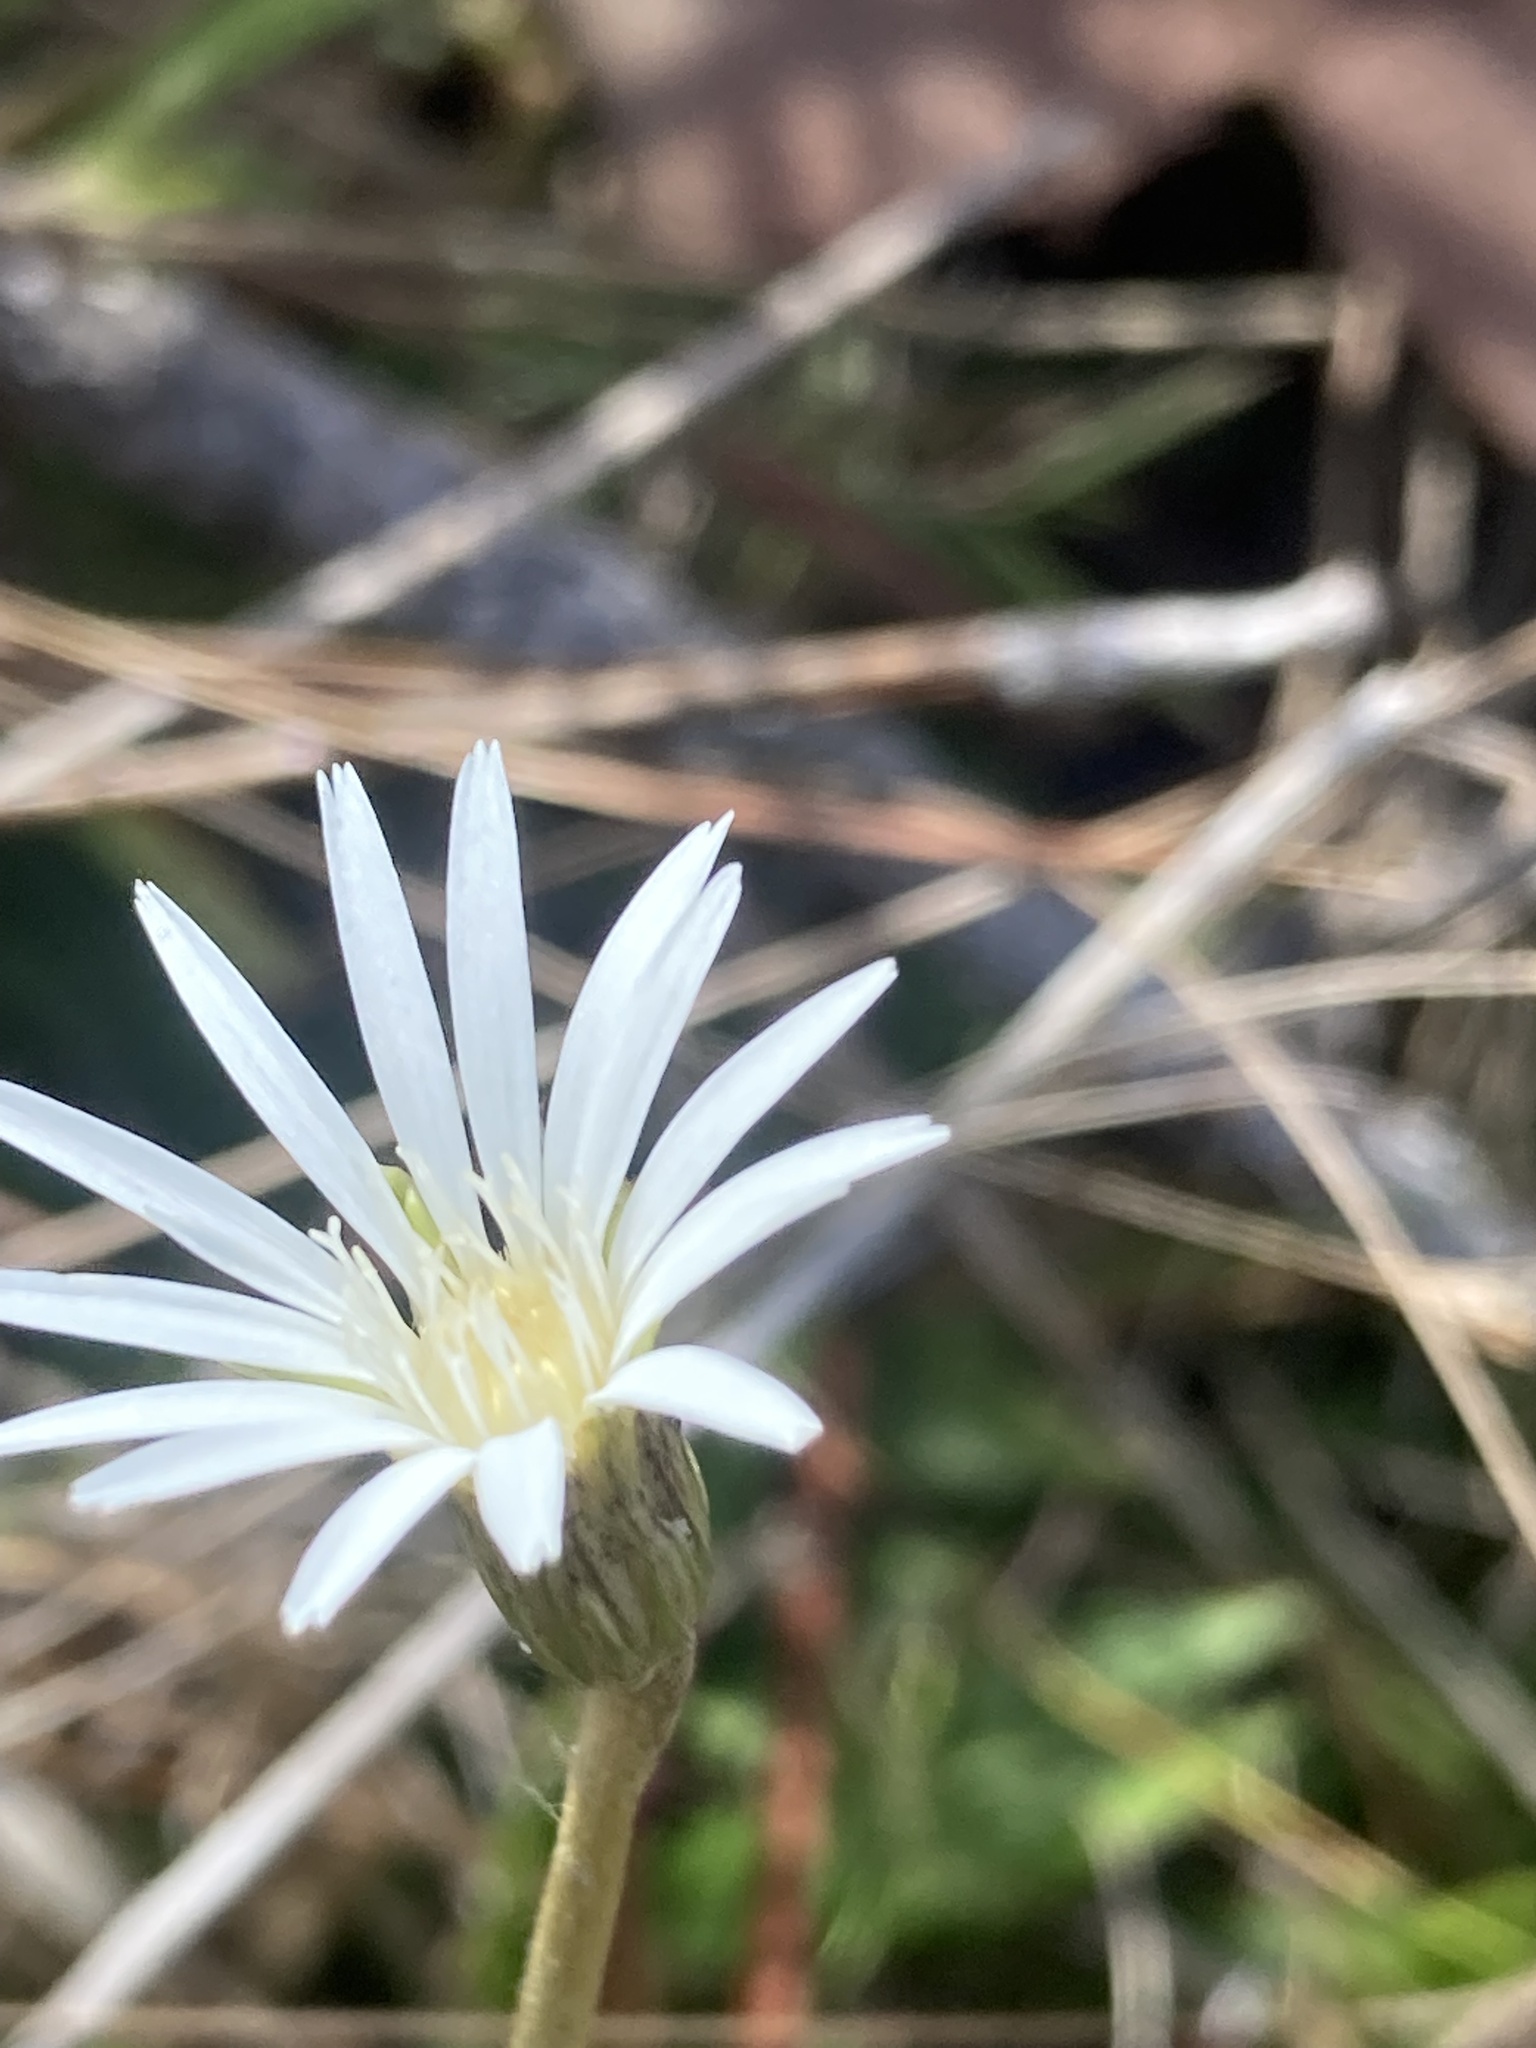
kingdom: Plantae
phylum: Tracheophyta
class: Magnoliopsida
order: Asterales
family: Asteraceae
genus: Chaptalia
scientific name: Chaptalia tomentosa
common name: Woolly sunbonnet
